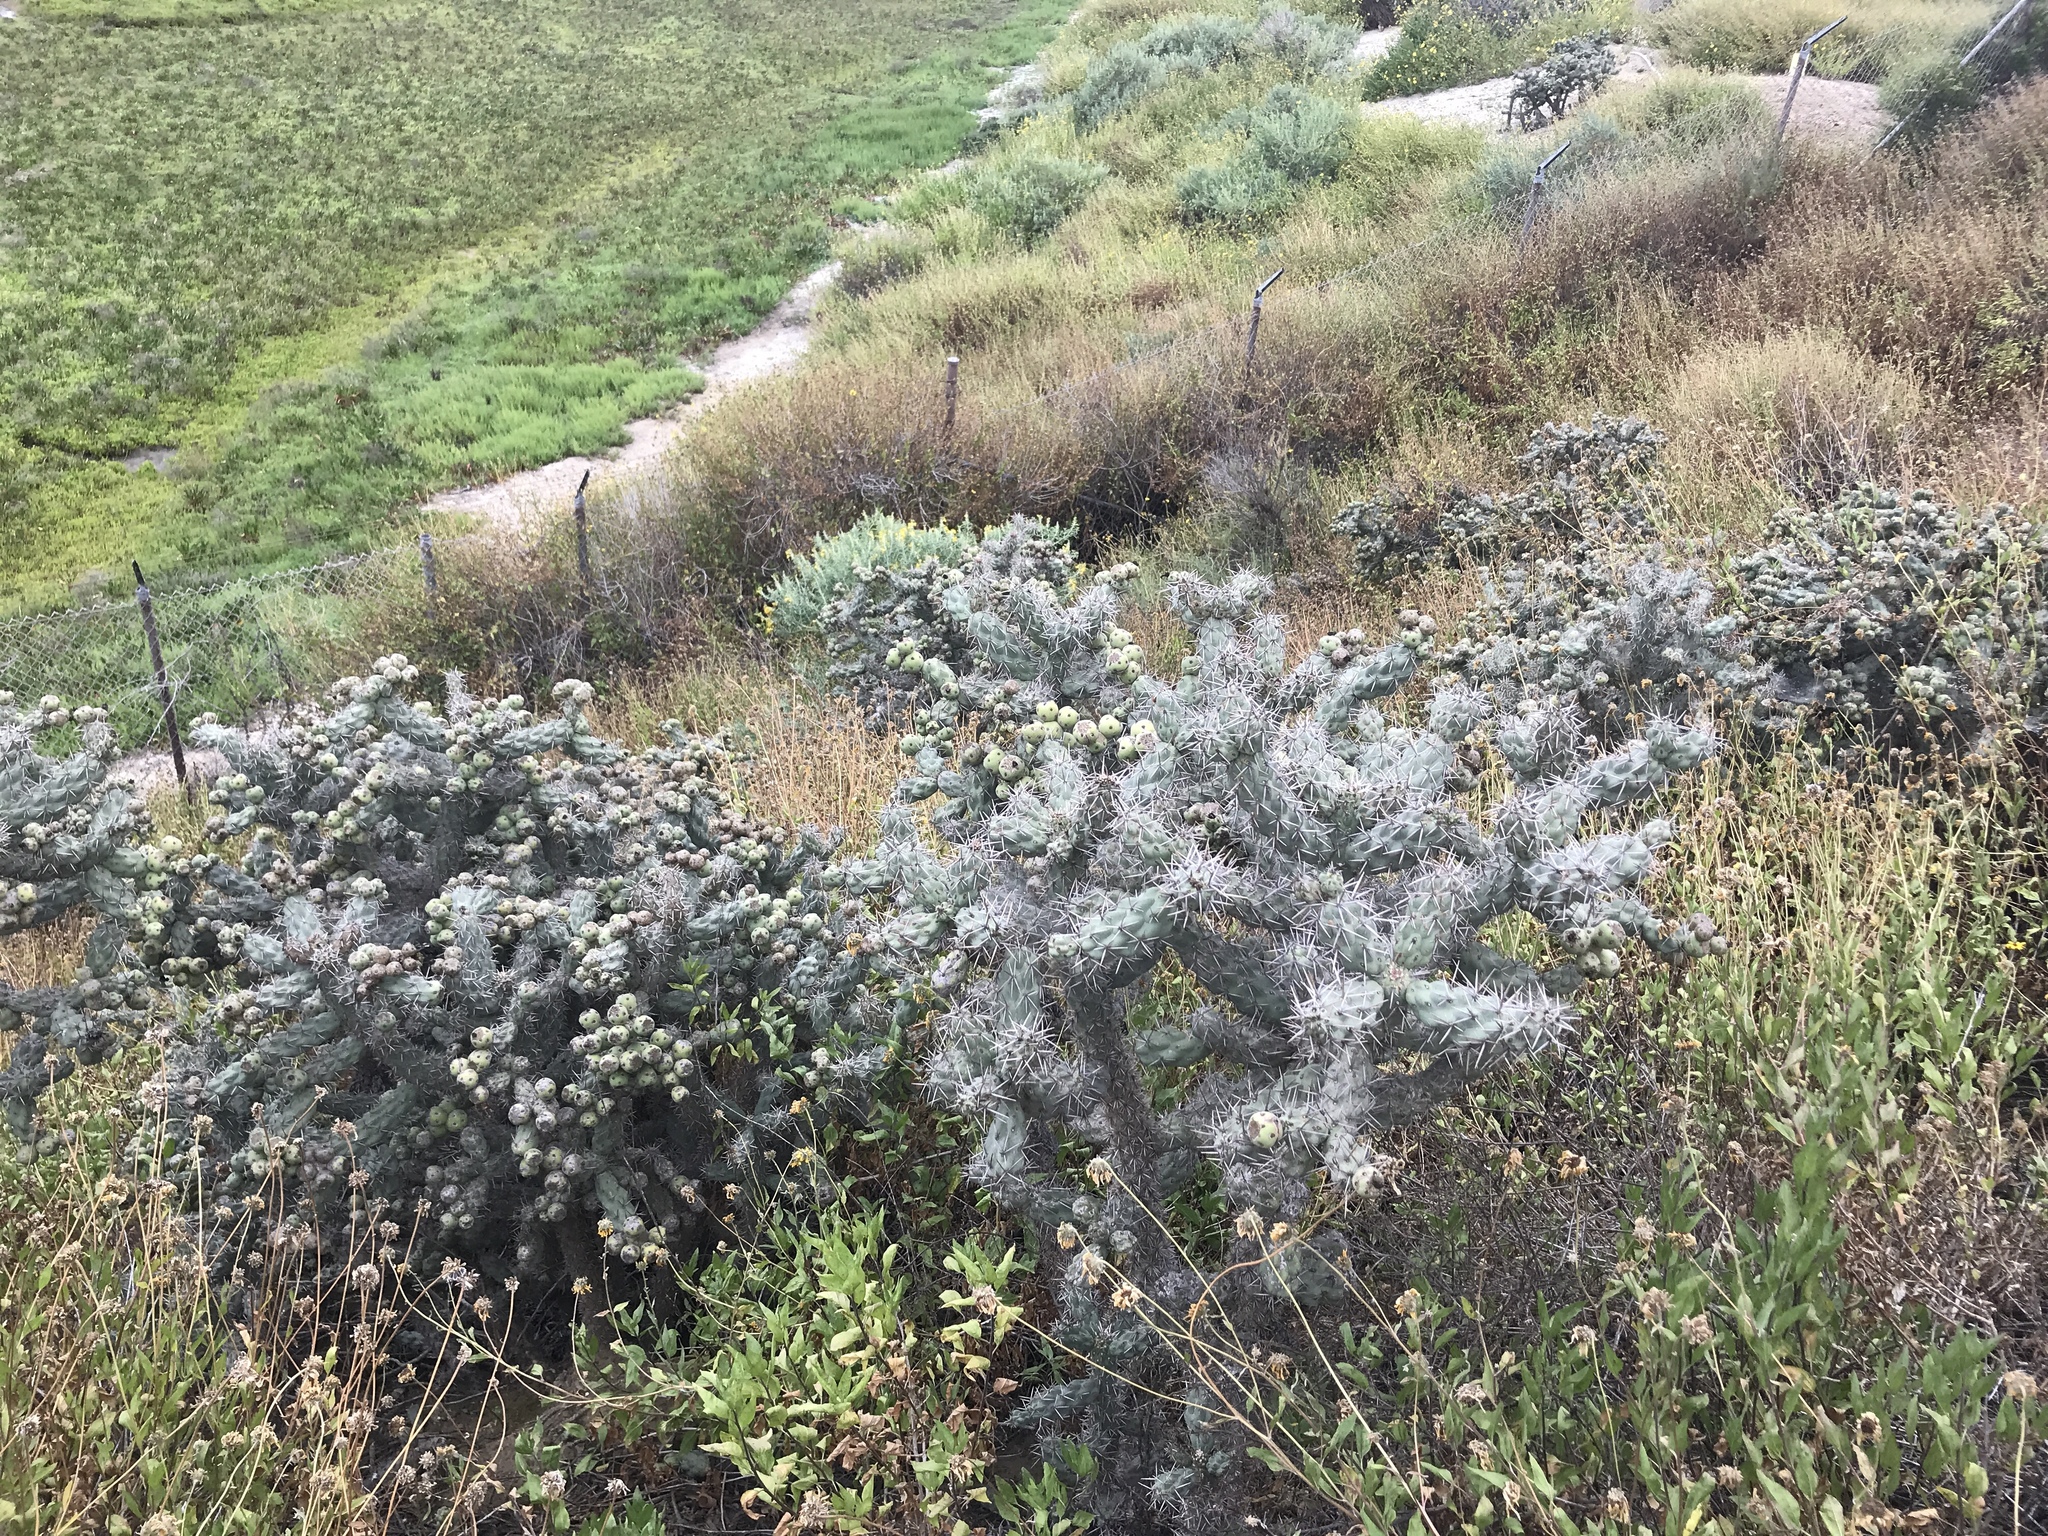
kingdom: Plantae
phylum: Tracheophyta
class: Magnoliopsida
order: Caryophyllales
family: Cactaceae
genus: Cylindropuntia
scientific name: Cylindropuntia cholla
